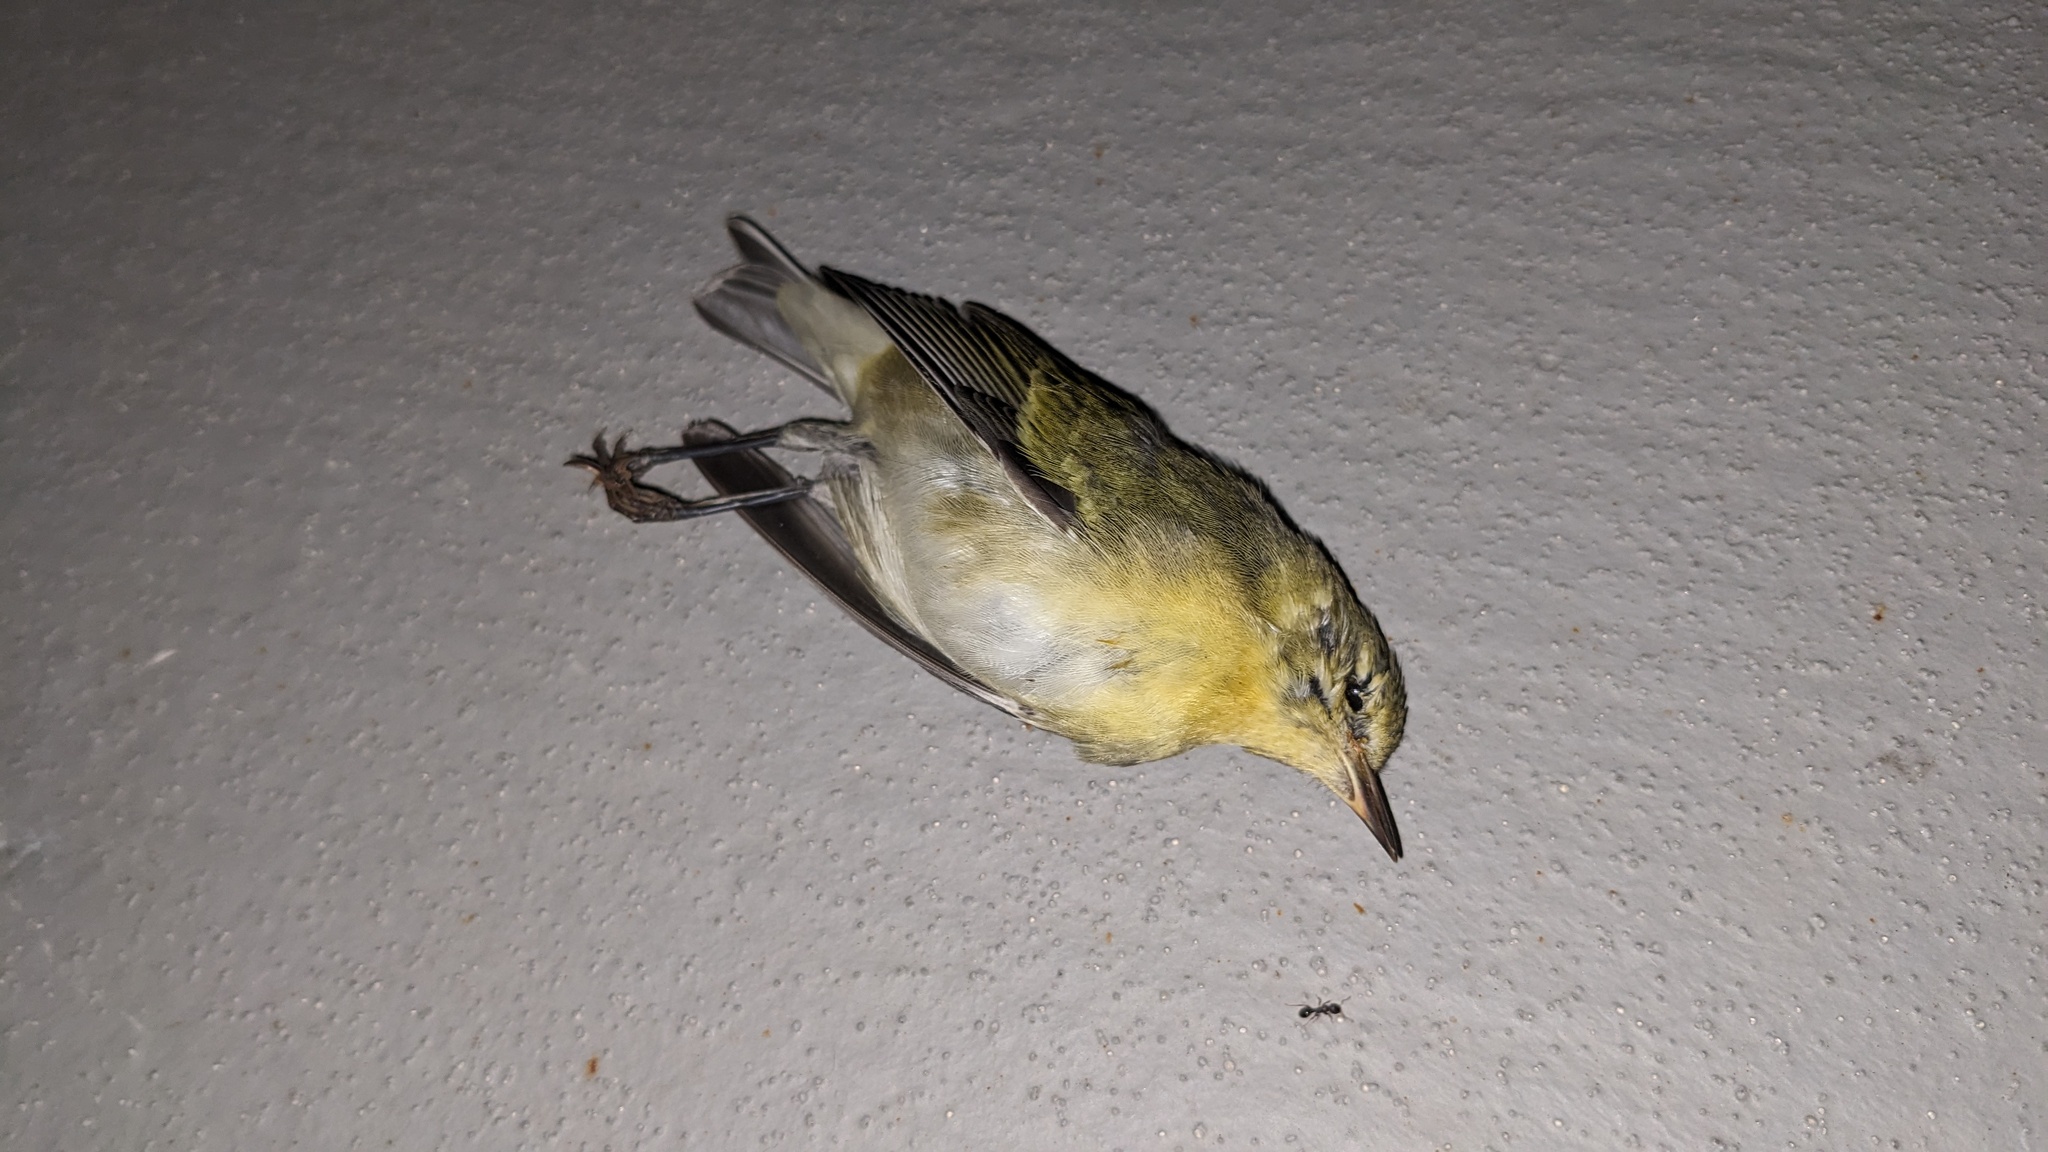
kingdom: Animalia
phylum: Chordata
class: Aves
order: Passeriformes
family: Parulidae
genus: Leiothlypis
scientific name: Leiothlypis peregrina
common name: Tennessee warbler
